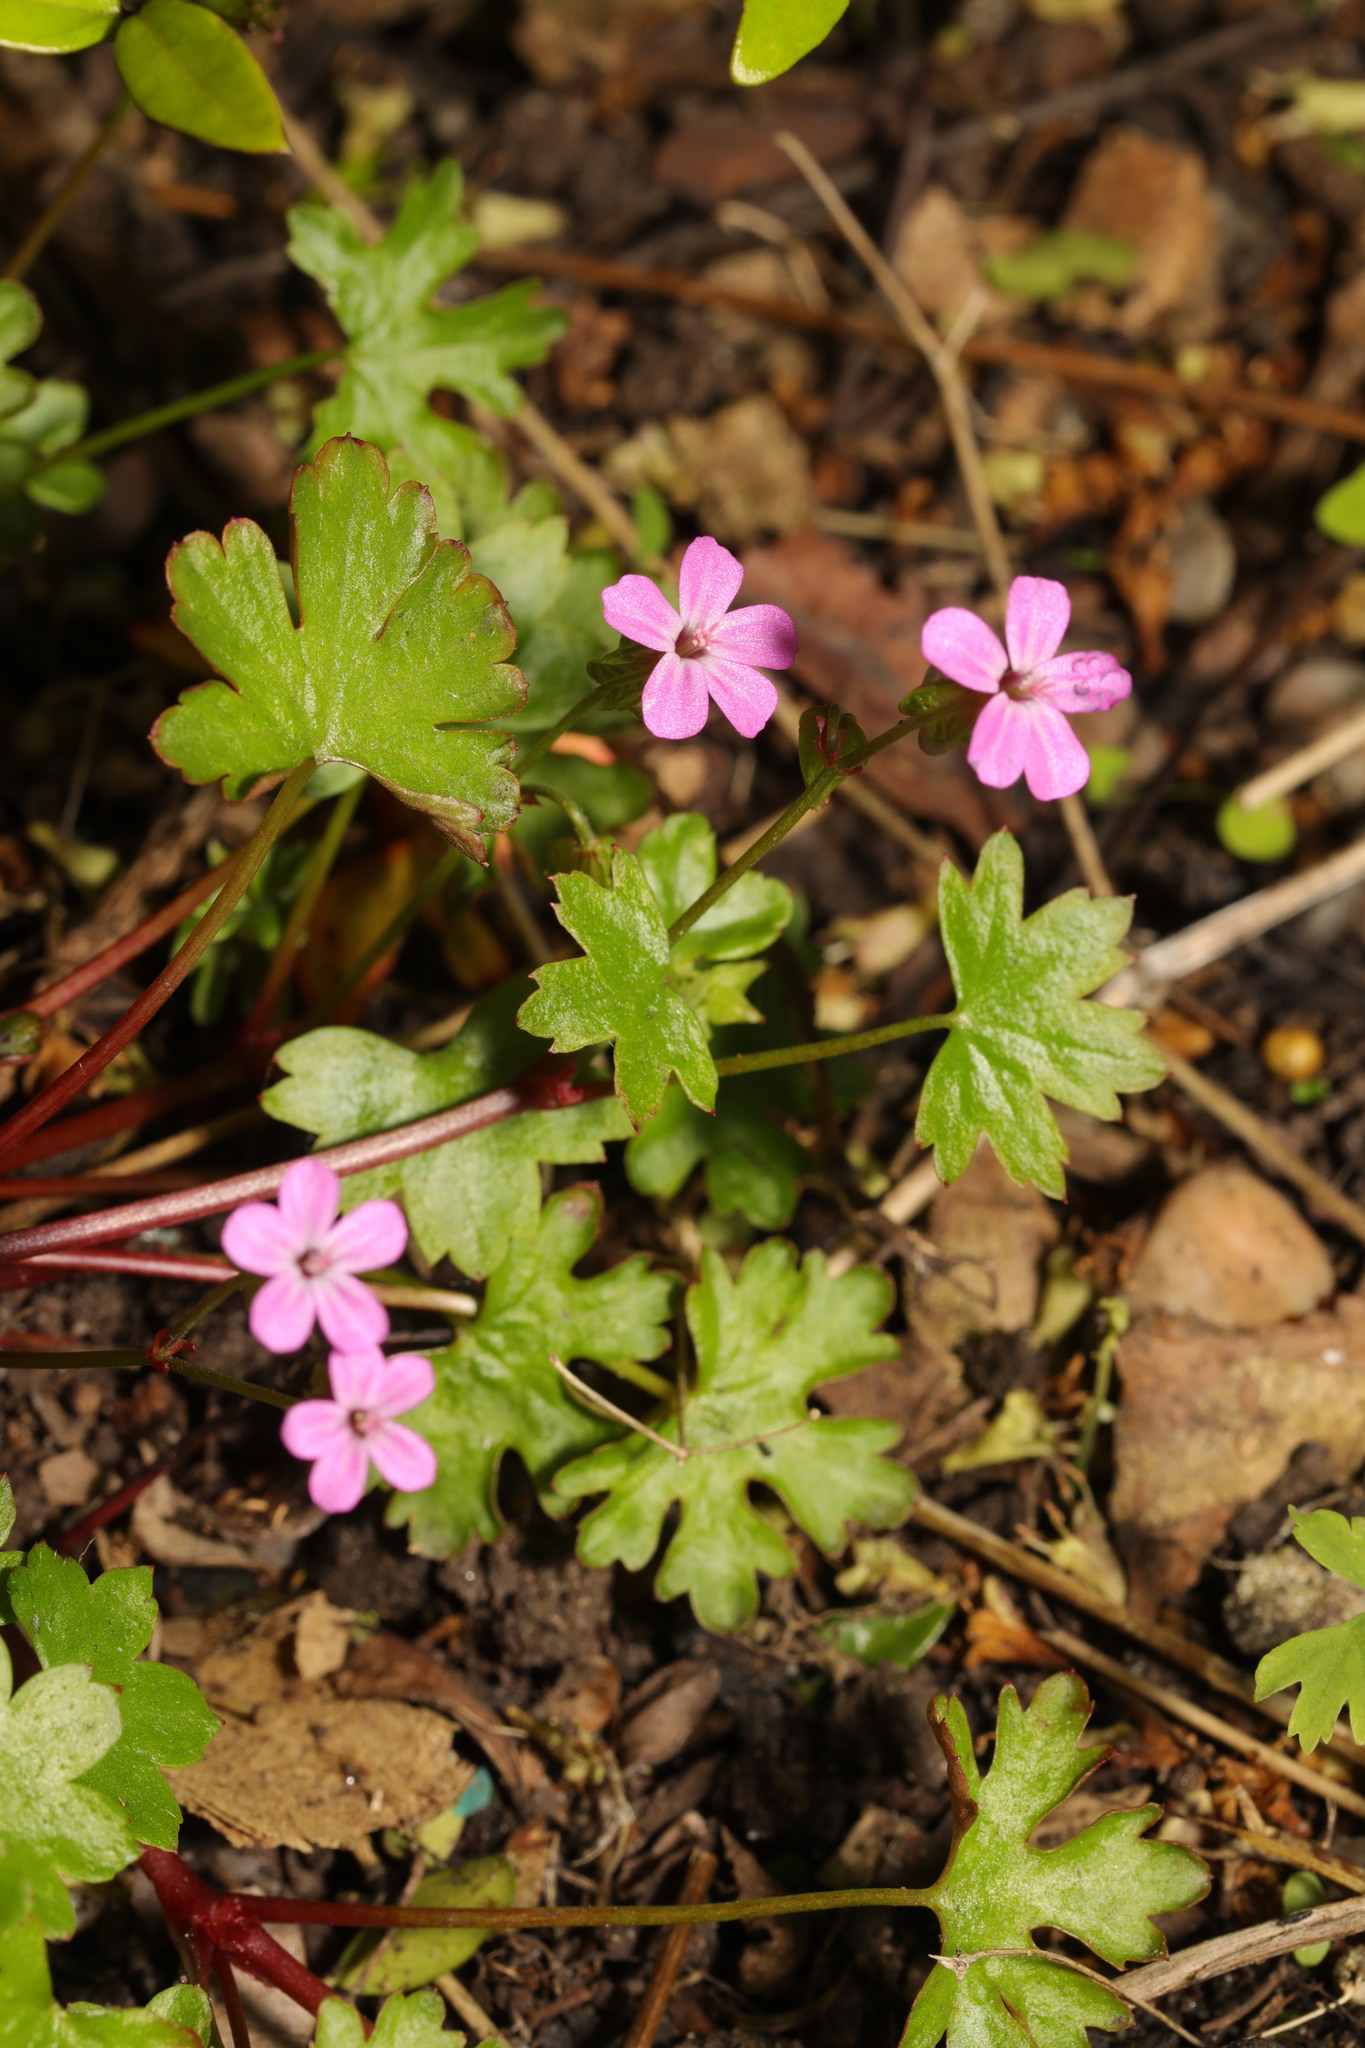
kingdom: Plantae
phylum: Tracheophyta
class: Magnoliopsida
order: Geraniales
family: Geraniaceae
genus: Geranium
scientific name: Geranium robertianum
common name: Herb-robert
